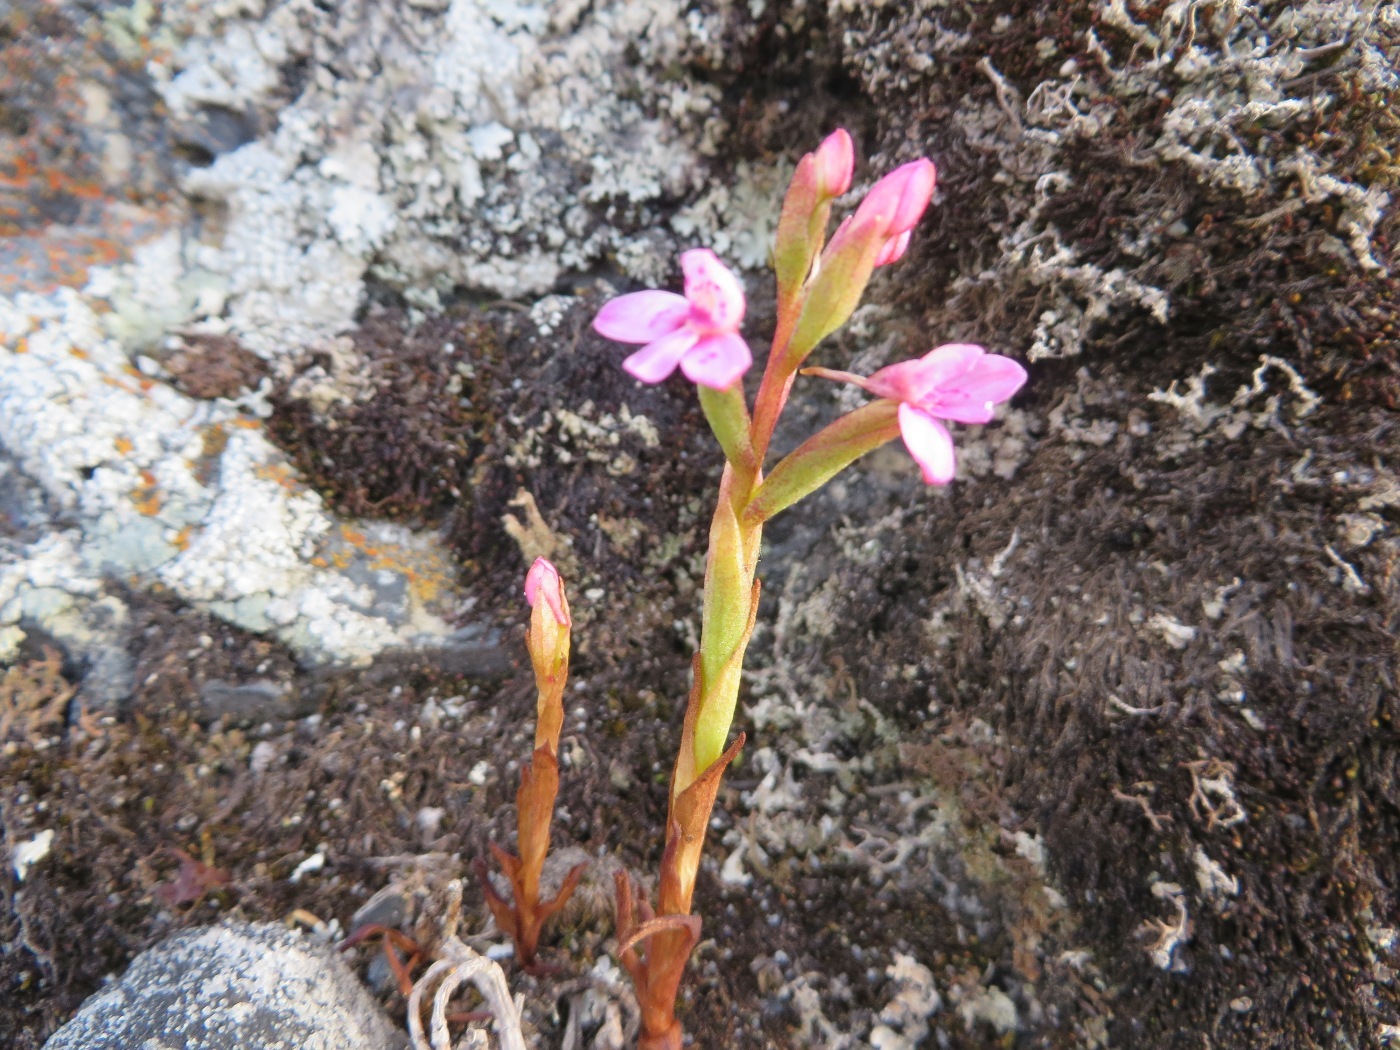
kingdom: Plantae
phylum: Tracheophyta
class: Liliopsida
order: Asparagales
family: Orchidaceae
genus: Disa
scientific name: Disa vaginata
